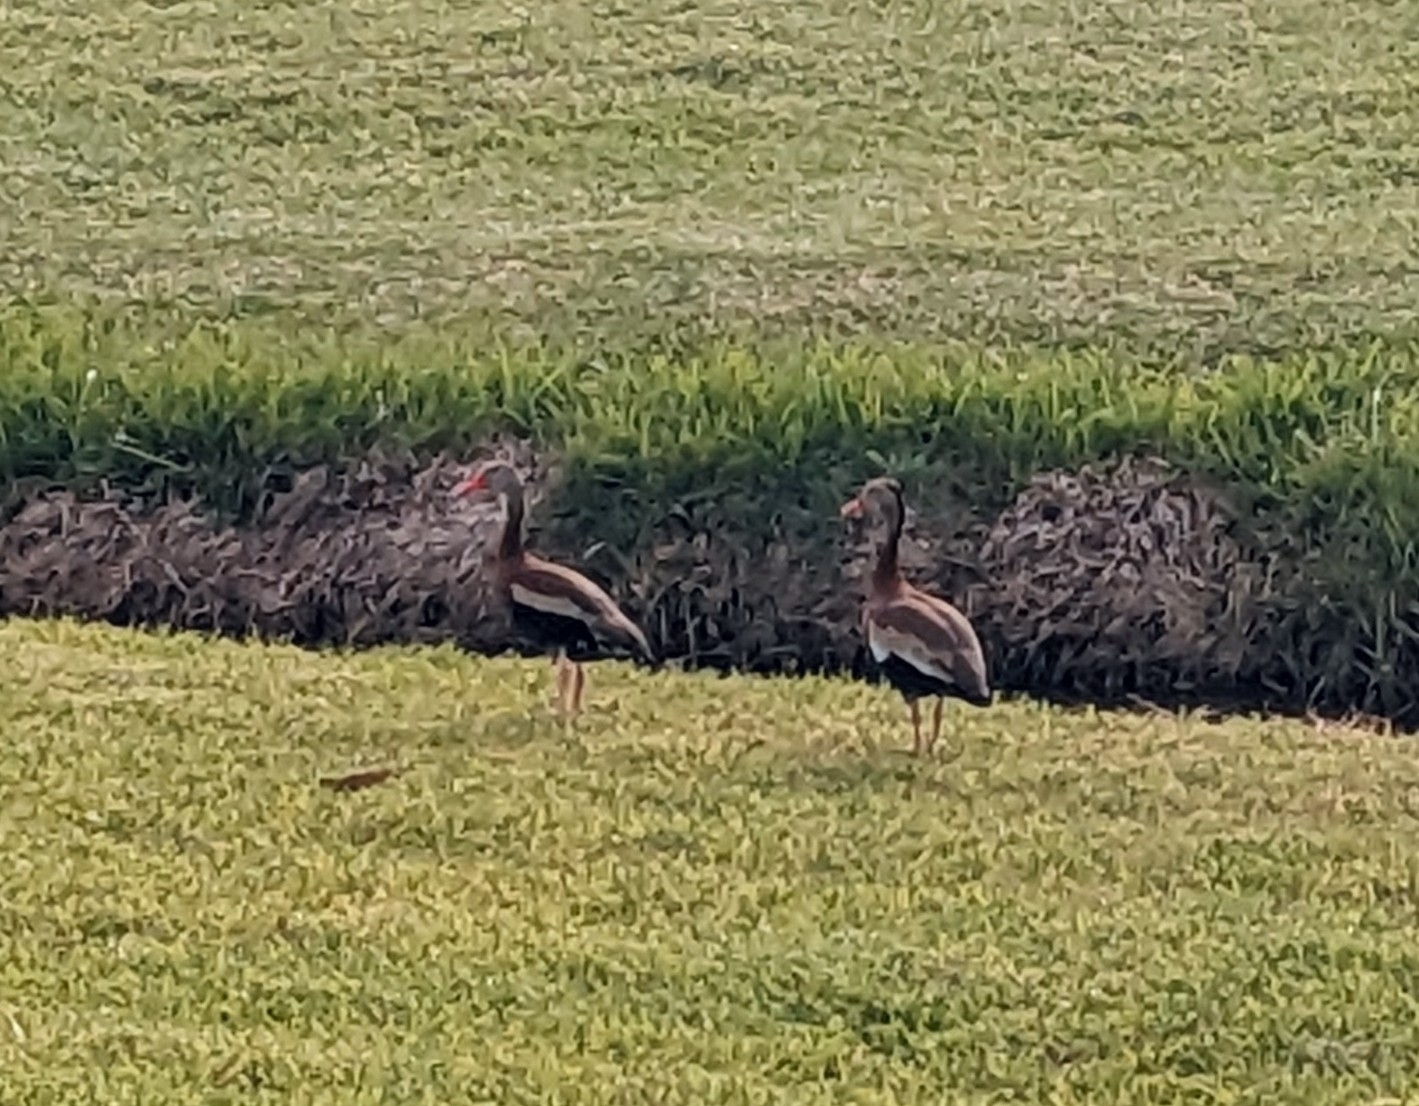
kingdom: Animalia
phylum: Chordata
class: Aves
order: Anseriformes
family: Anatidae
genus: Dendrocygna
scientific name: Dendrocygna autumnalis
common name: Black-bellied whistling duck
